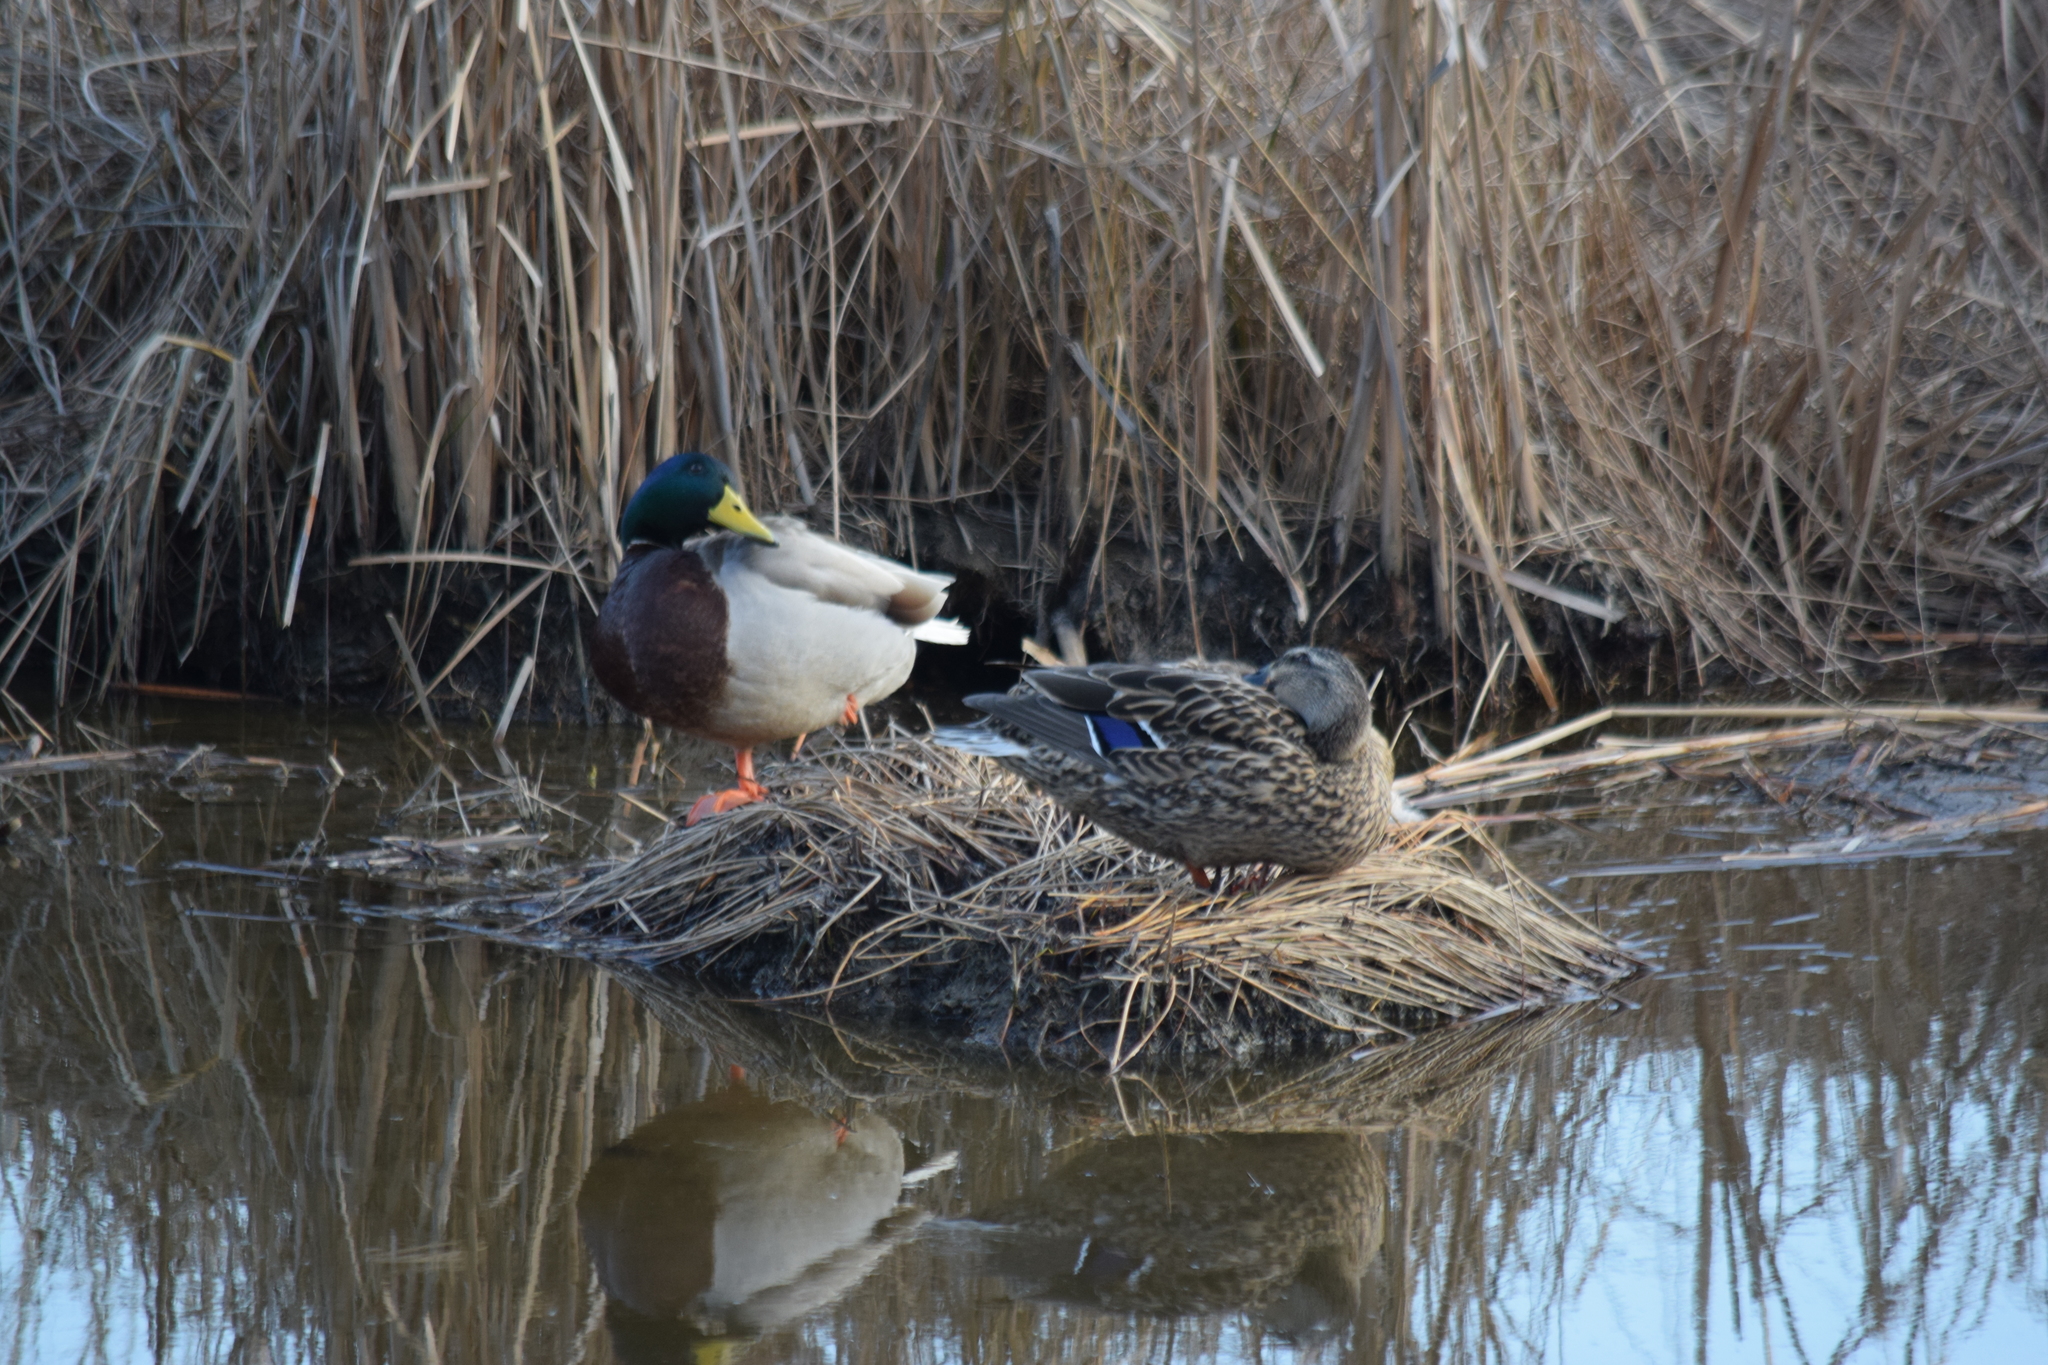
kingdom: Animalia
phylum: Chordata
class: Aves
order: Anseriformes
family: Anatidae
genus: Anas
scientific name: Anas platyrhynchos
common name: Mallard
